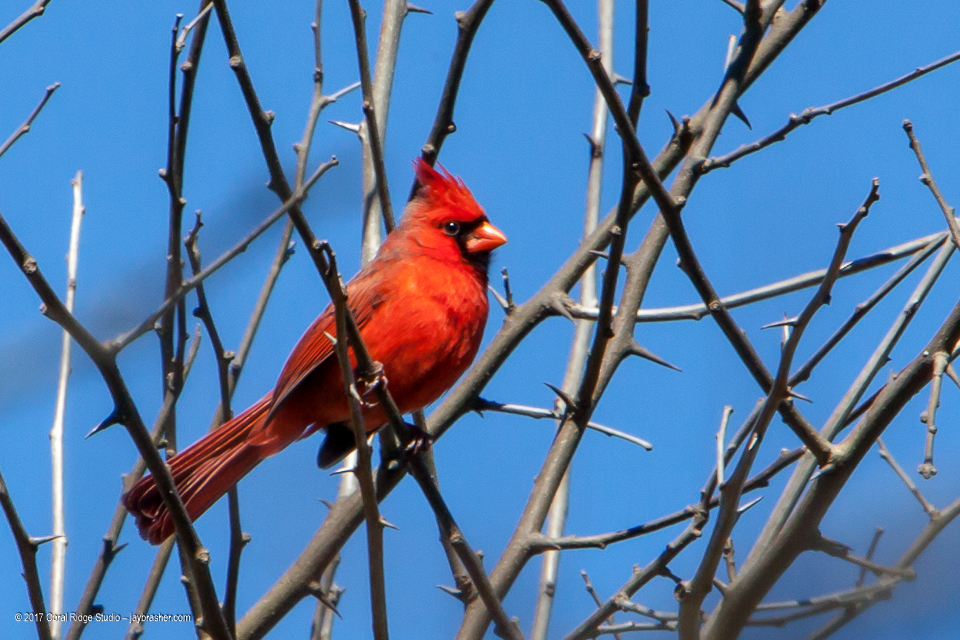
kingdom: Animalia
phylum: Chordata
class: Aves
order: Passeriformes
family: Cardinalidae
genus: Cardinalis
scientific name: Cardinalis cardinalis
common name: Northern cardinal
